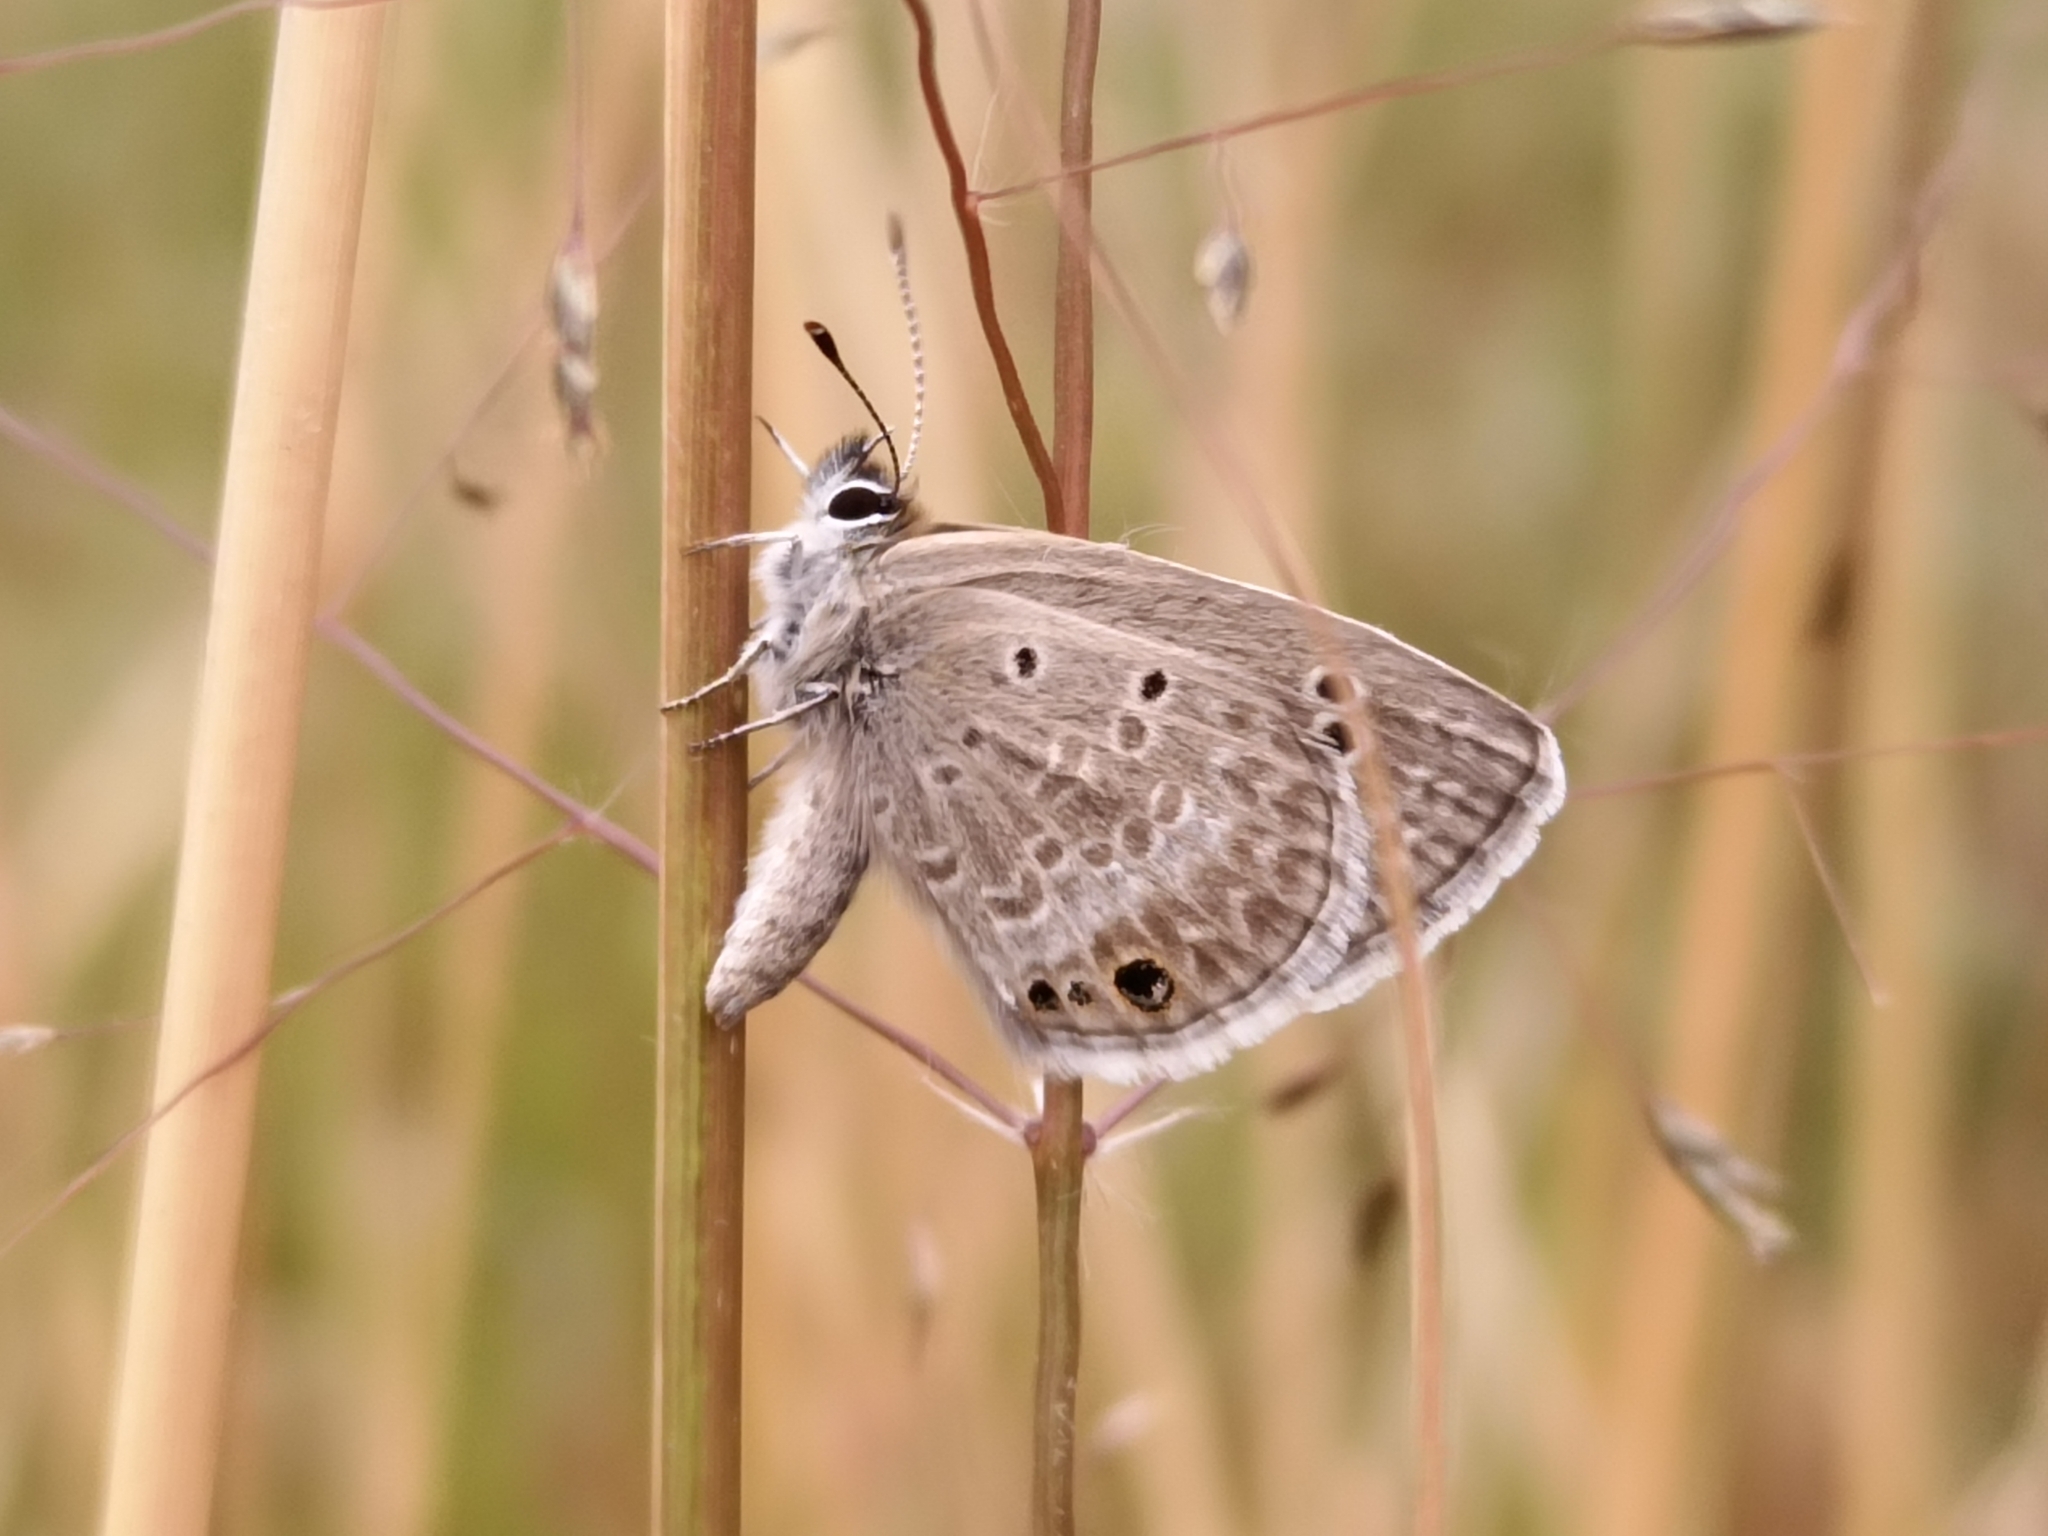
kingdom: Animalia
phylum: Arthropoda
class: Insecta
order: Lepidoptera
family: Lycaenidae
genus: Echinargus
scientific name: Echinargus isola
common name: Reakirt's blue
